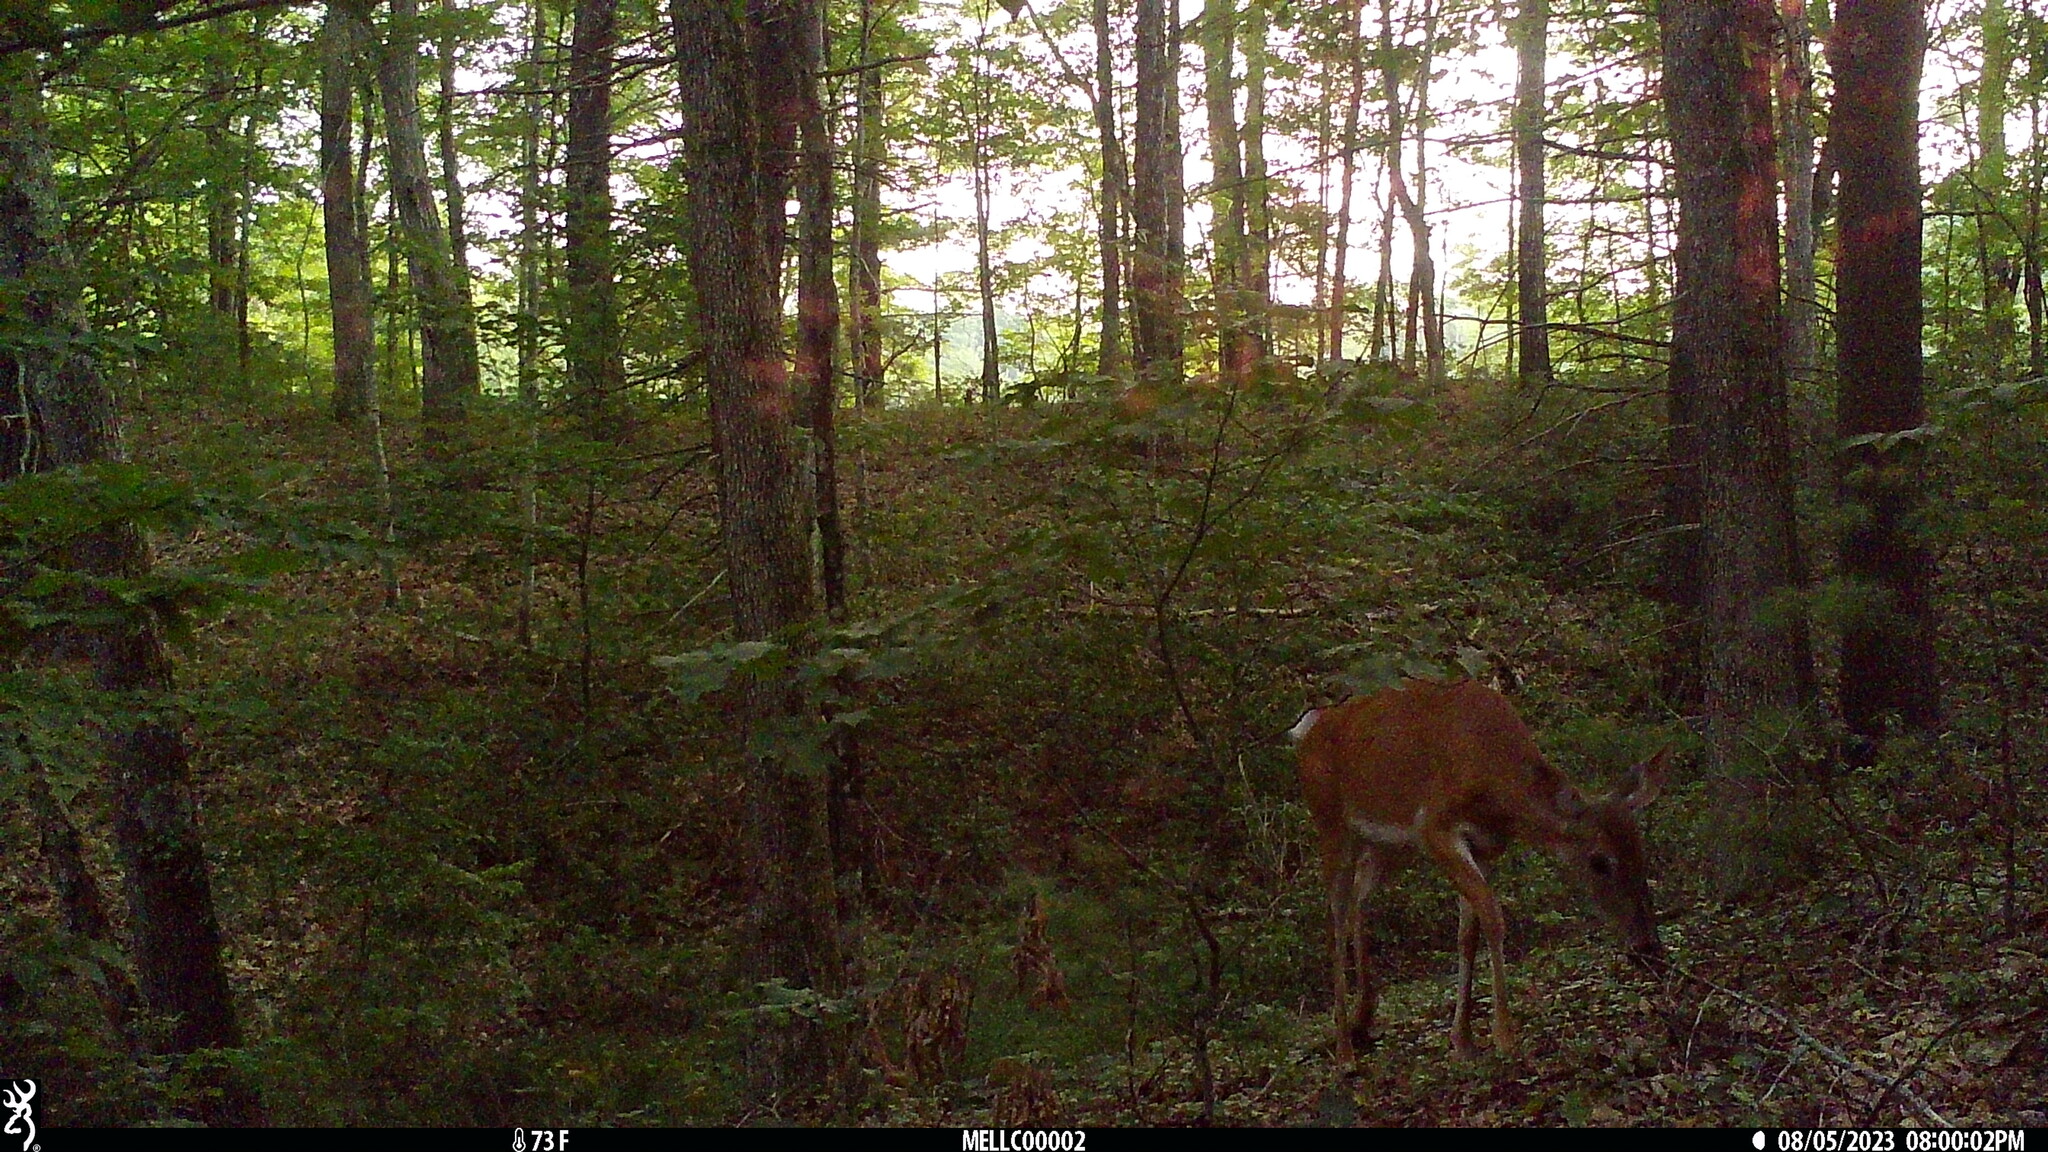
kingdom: Animalia
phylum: Chordata
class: Mammalia
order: Artiodactyla
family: Cervidae
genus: Odocoileus
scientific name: Odocoileus virginianus
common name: White-tailed deer
